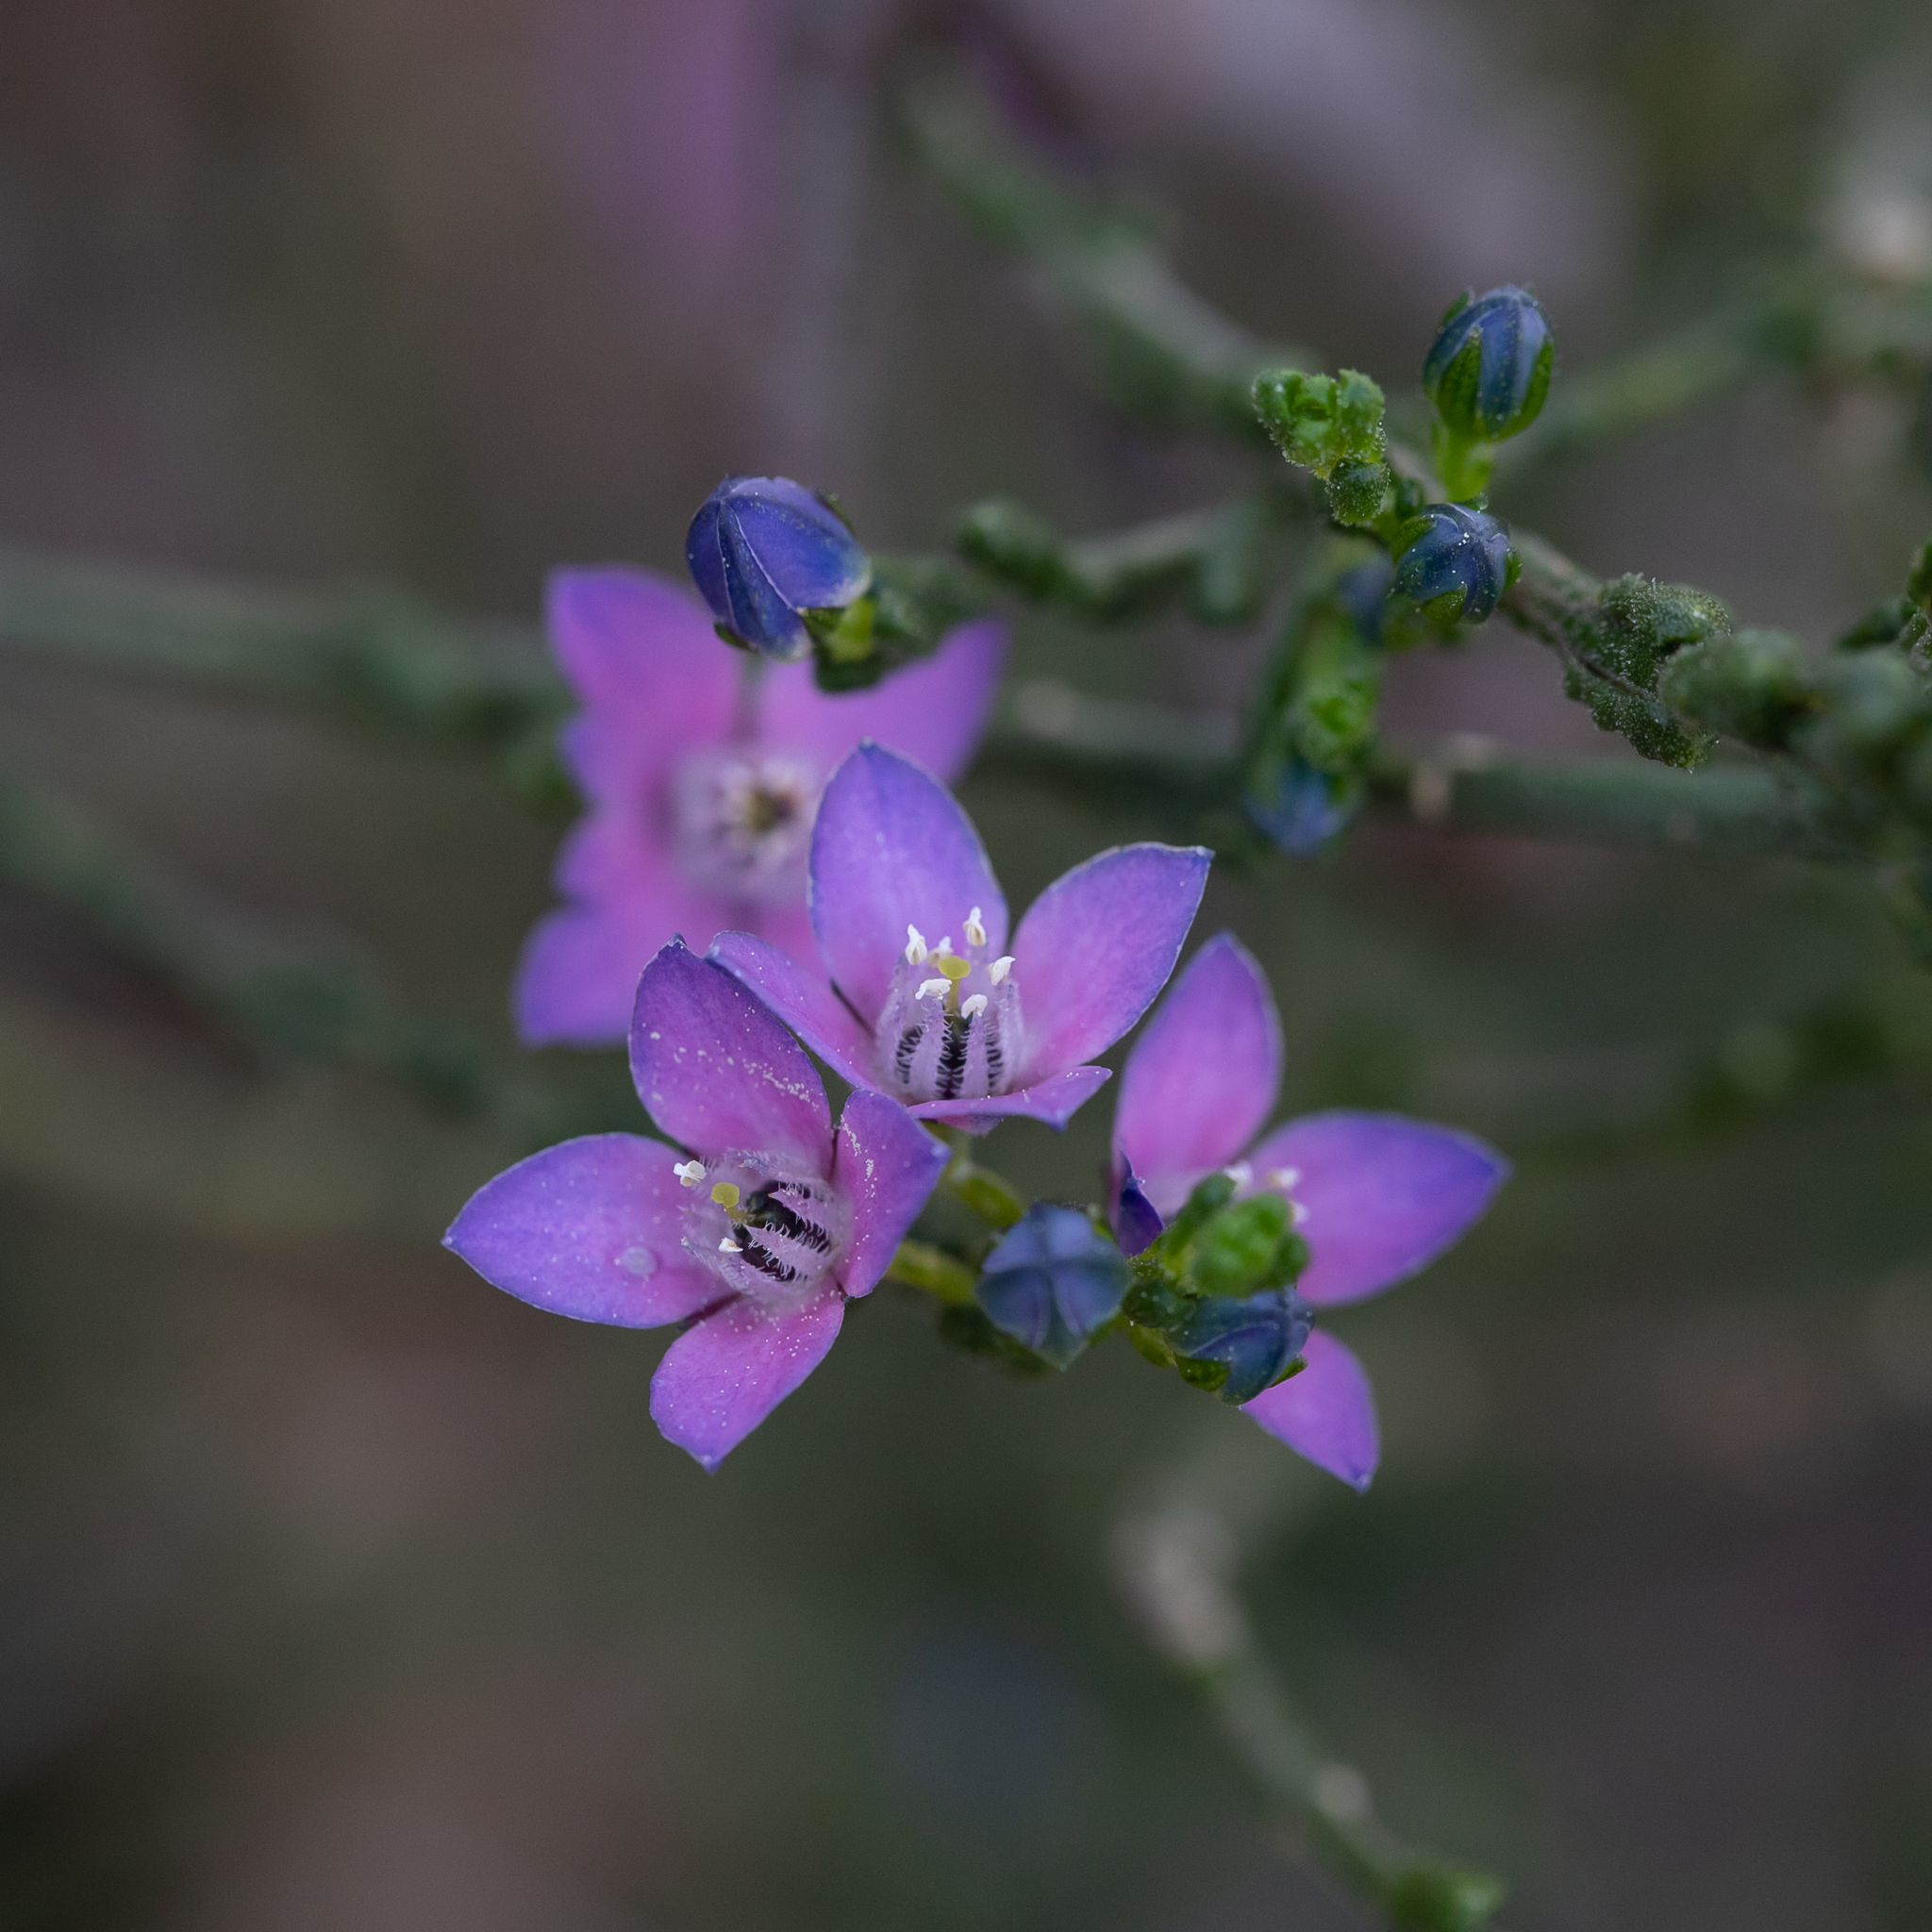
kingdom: Plantae
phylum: Tracheophyta
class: Magnoliopsida
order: Sapindales
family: Rutaceae
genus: Cyanothamnus
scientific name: Cyanothamnus coerulescens
